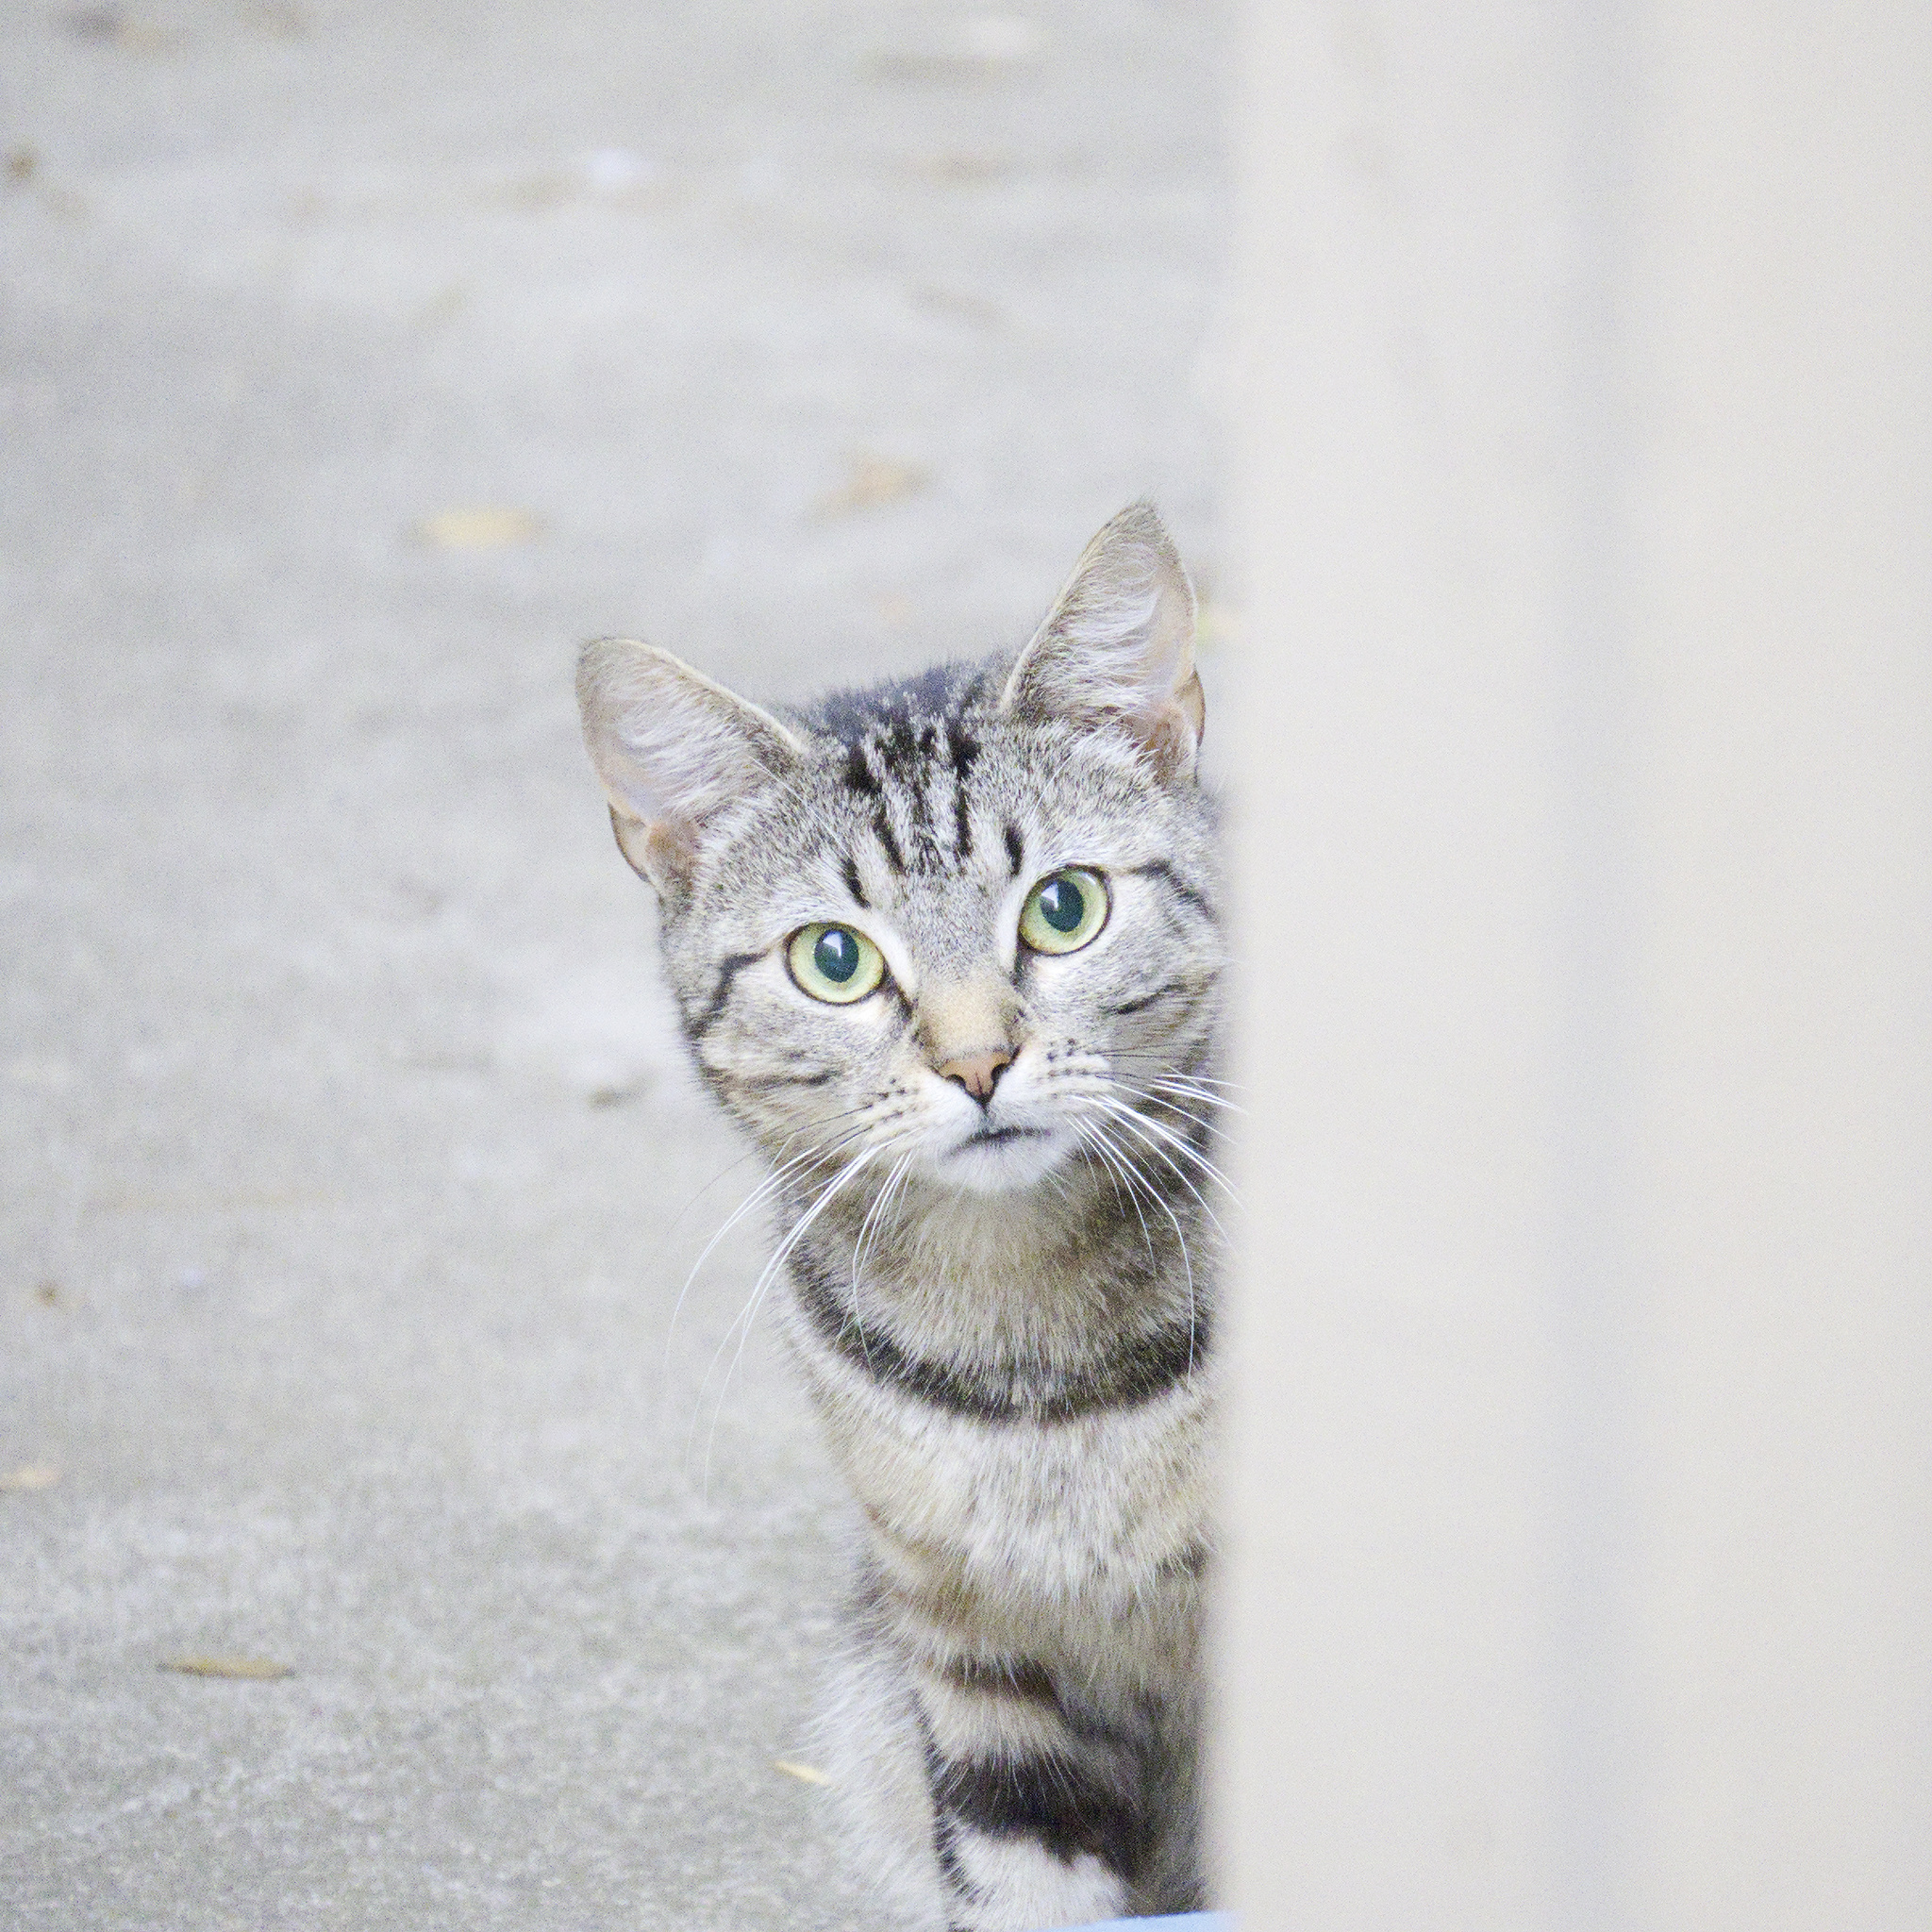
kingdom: Animalia
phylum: Chordata
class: Mammalia
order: Carnivora
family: Felidae
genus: Felis
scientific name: Felis catus
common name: Domestic cat
